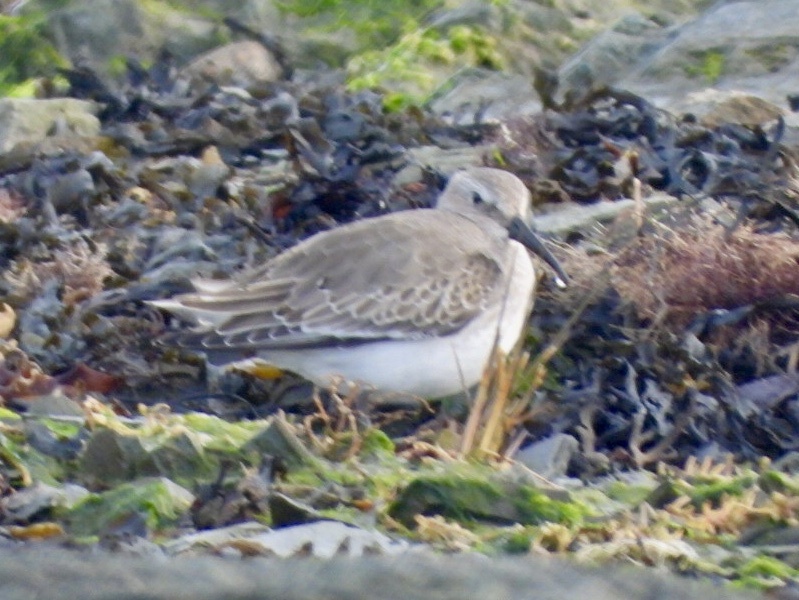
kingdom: Animalia
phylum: Chordata
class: Aves
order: Charadriiformes
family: Scolopacidae
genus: Calidris
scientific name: Calidris alpina
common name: Dunlin
